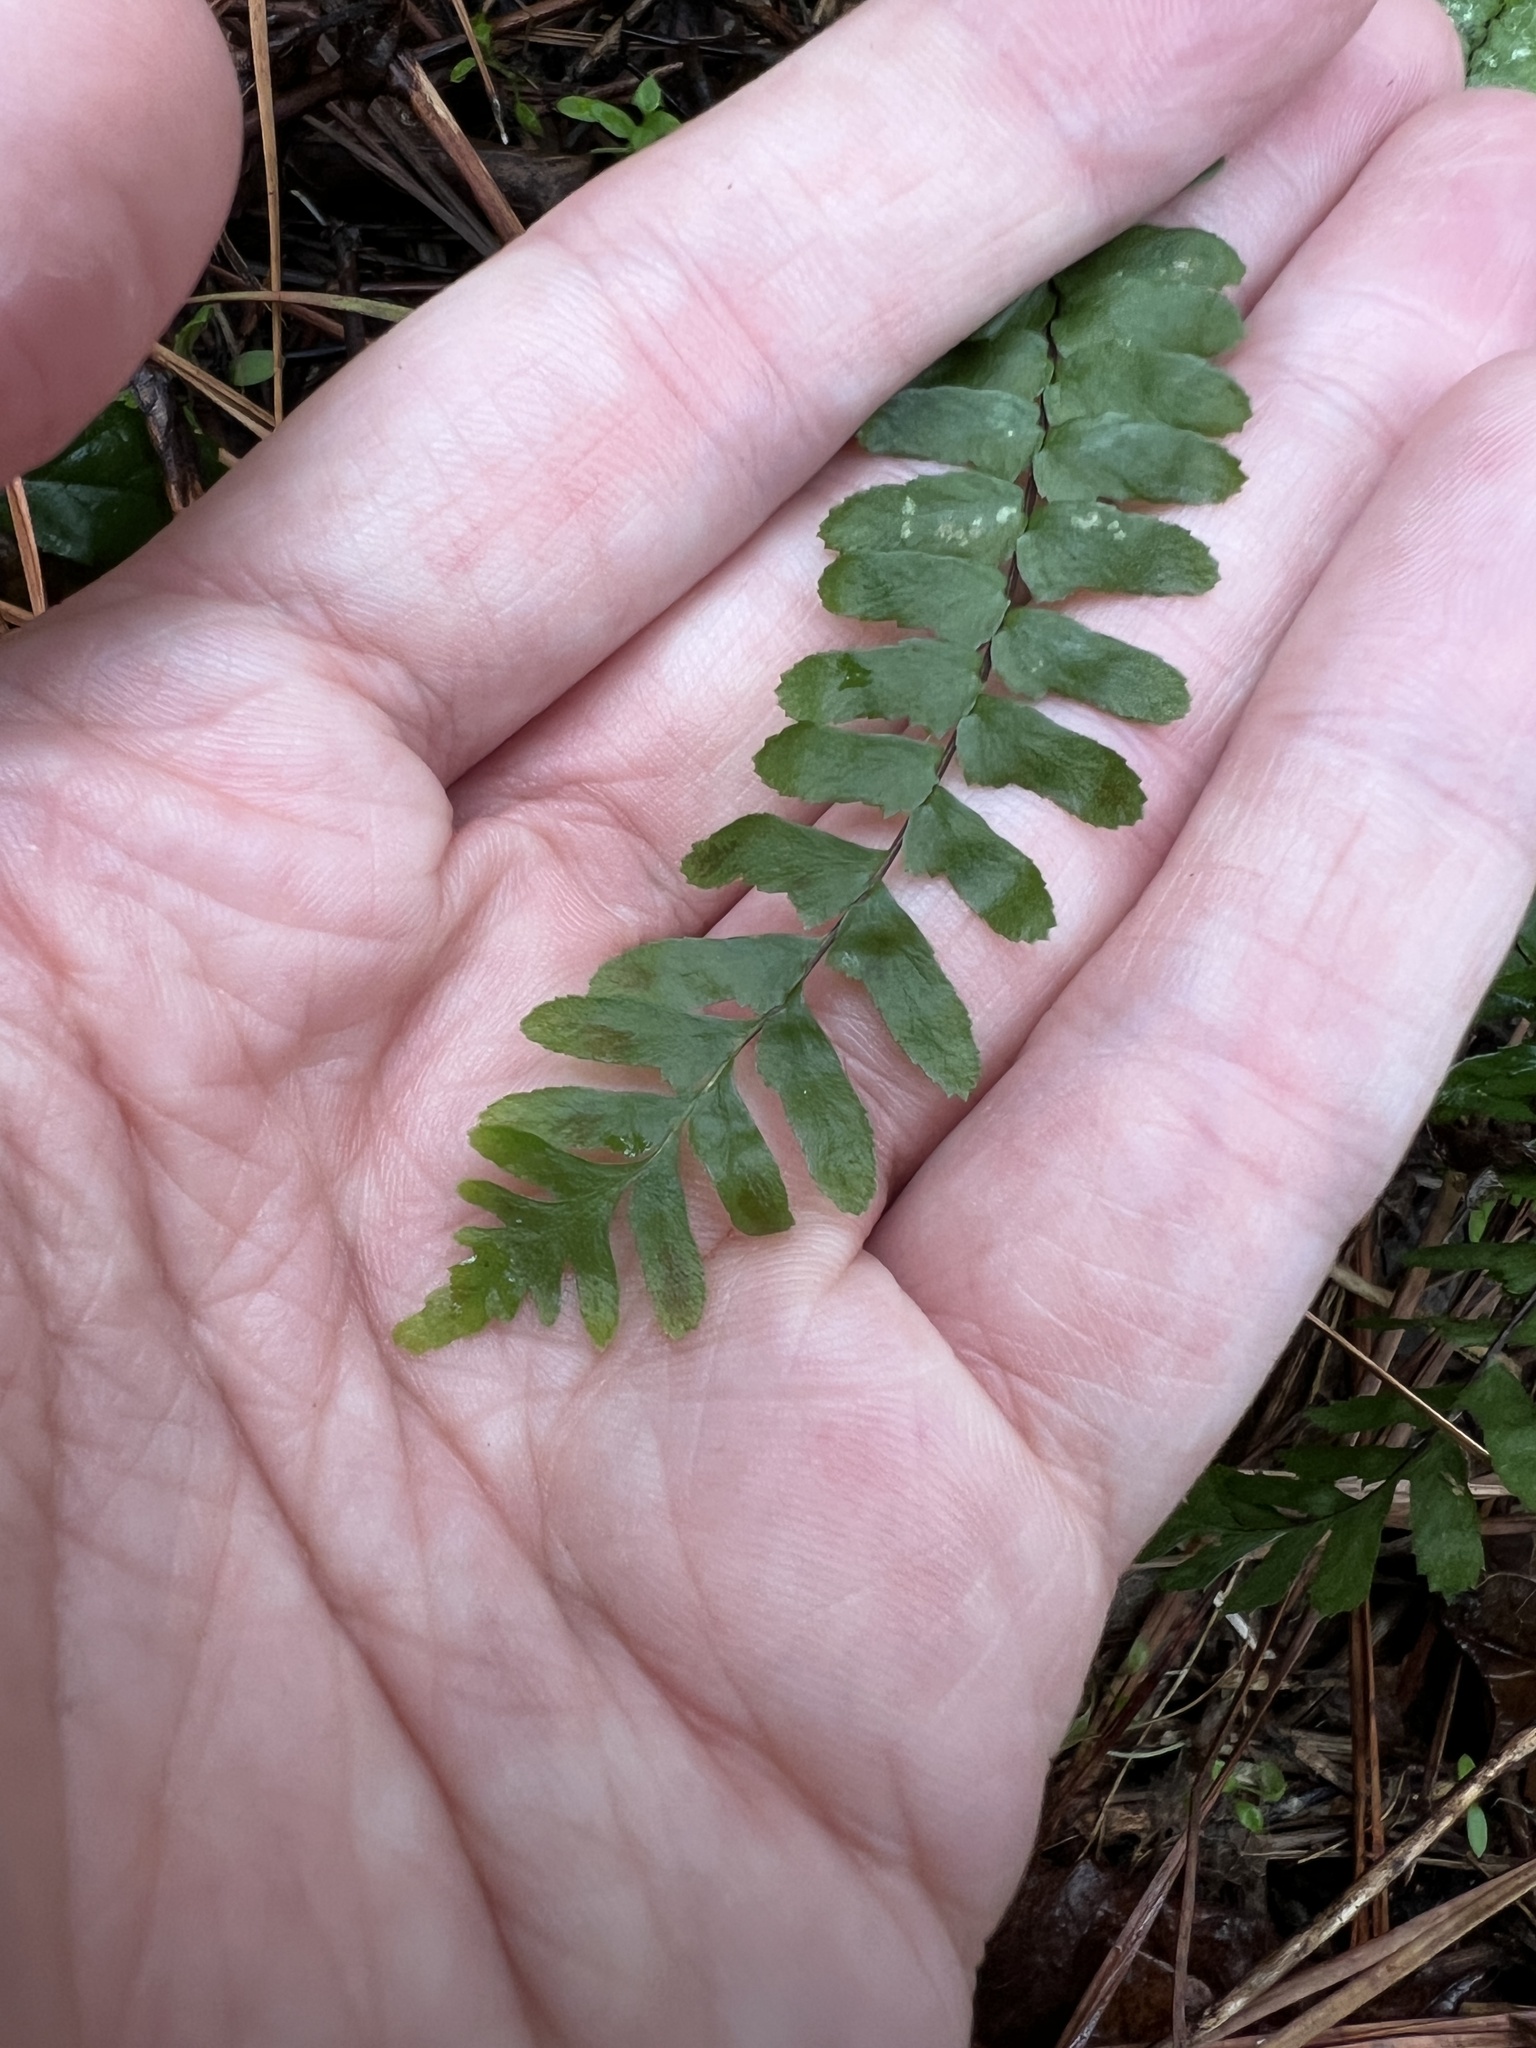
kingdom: Plantae
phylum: Tracheophyta
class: Polypodiopsida
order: Polypodiales
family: Aspleniaceae
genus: Asplenium
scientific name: Asplenium platyneuron
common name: Ebony spleenwort
